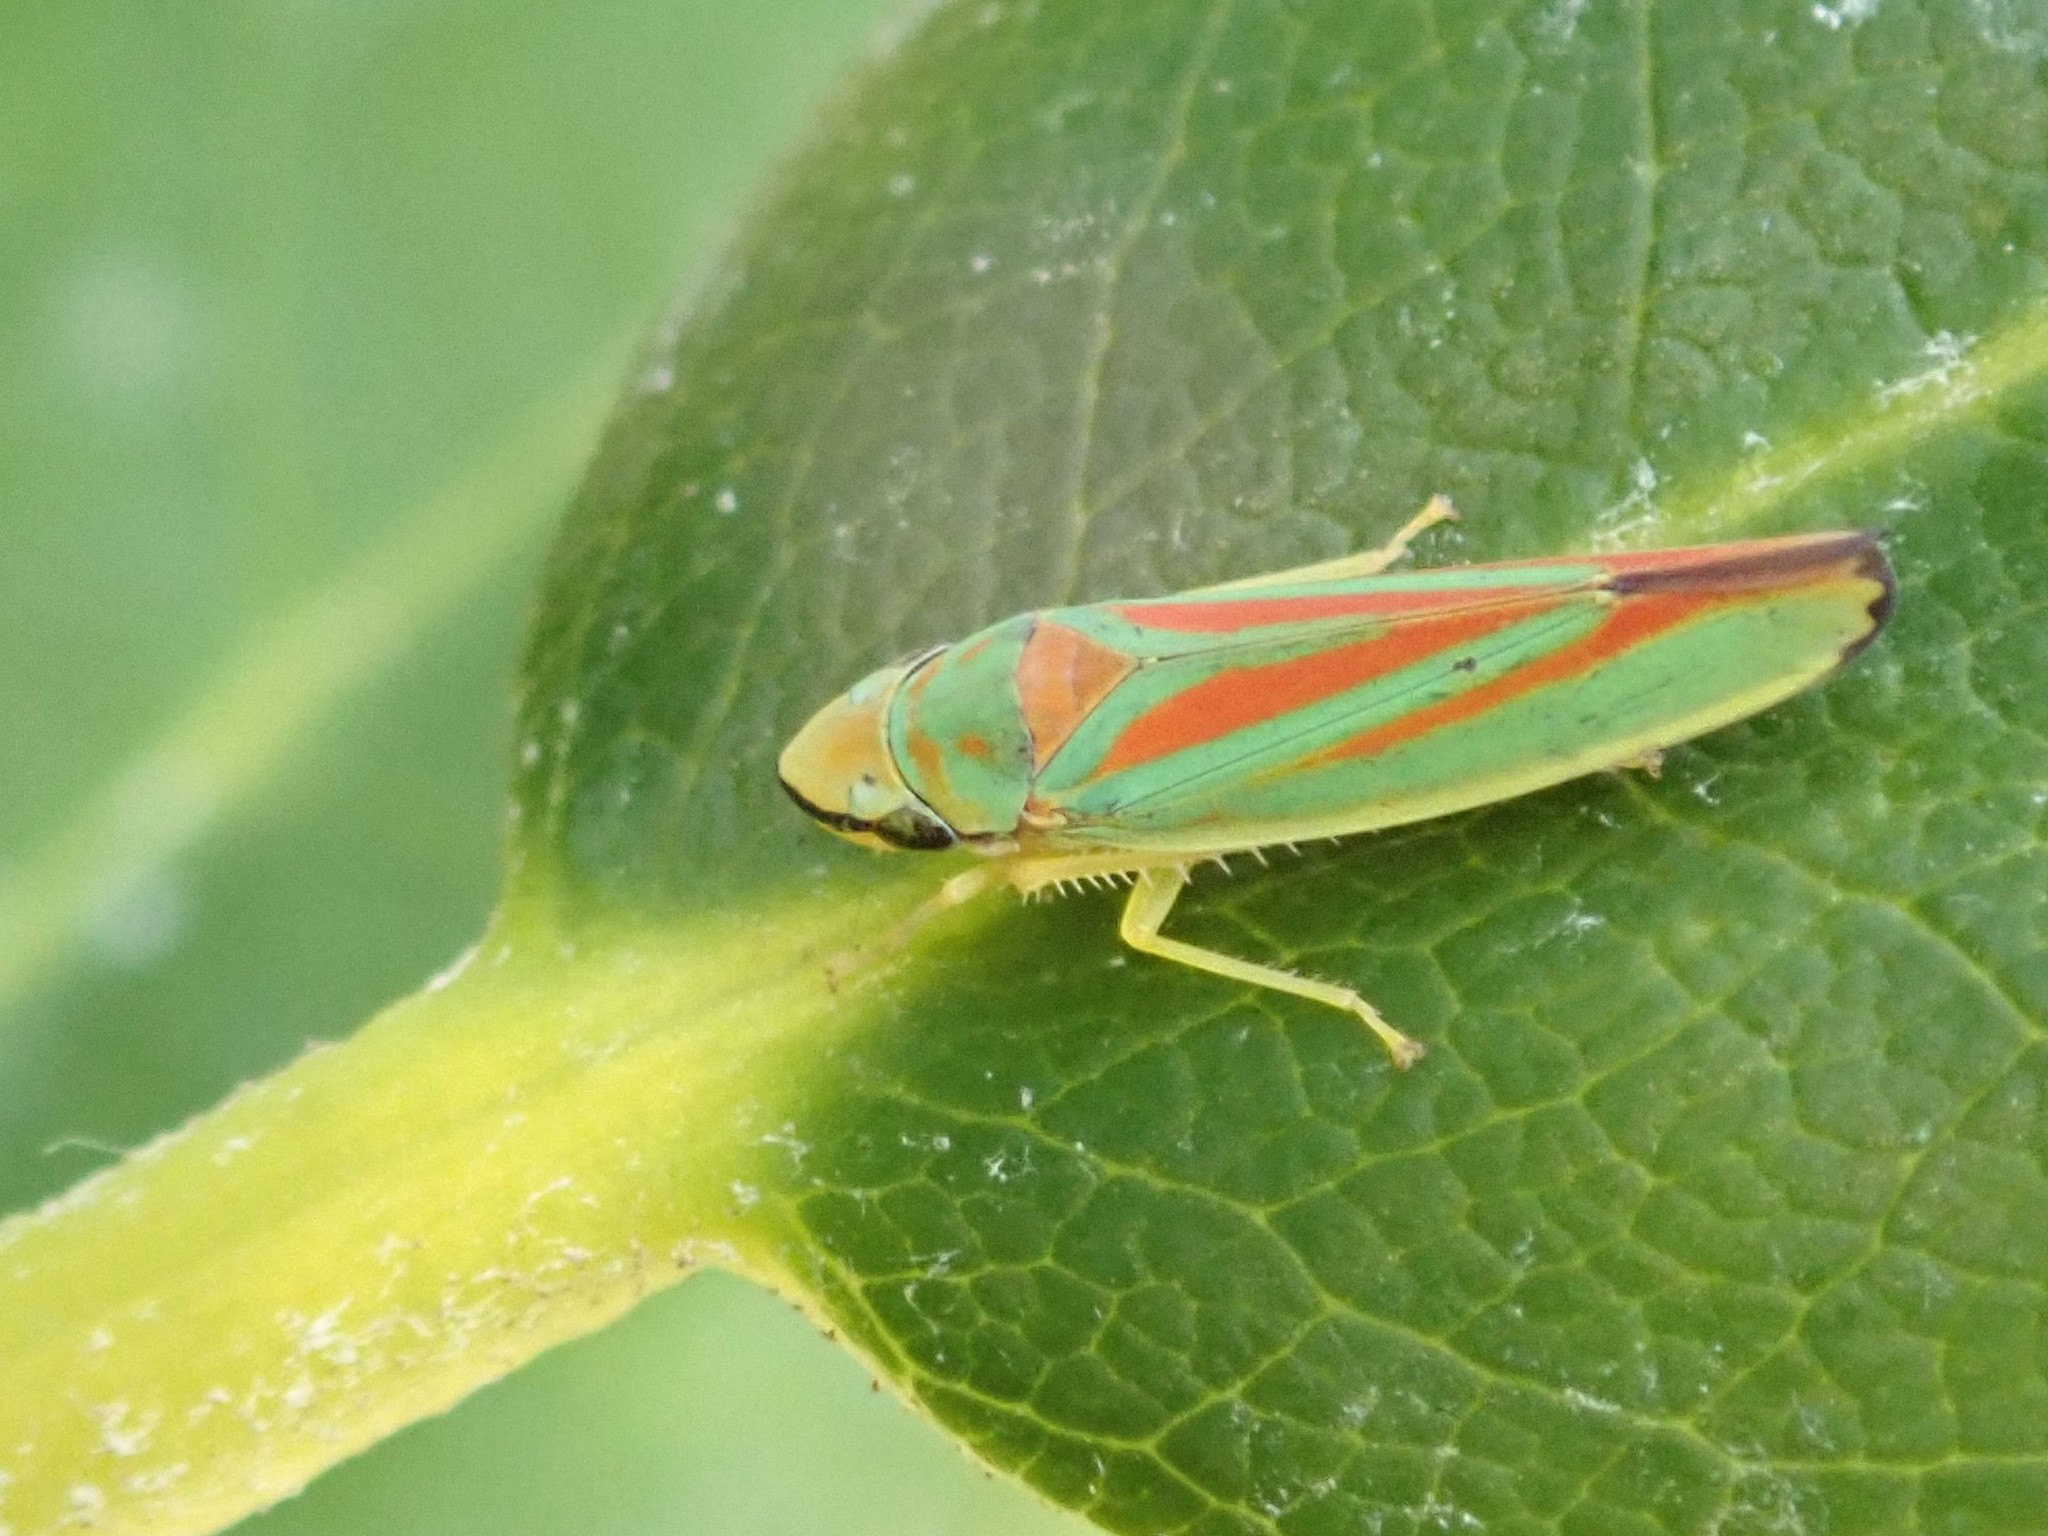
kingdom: Animalia
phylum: Arthropoda
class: Insecta
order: Hemiptera
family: Cicadellidae
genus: Graphocephala
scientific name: Graphocephala fennahi
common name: Rhododendron leafhopper
